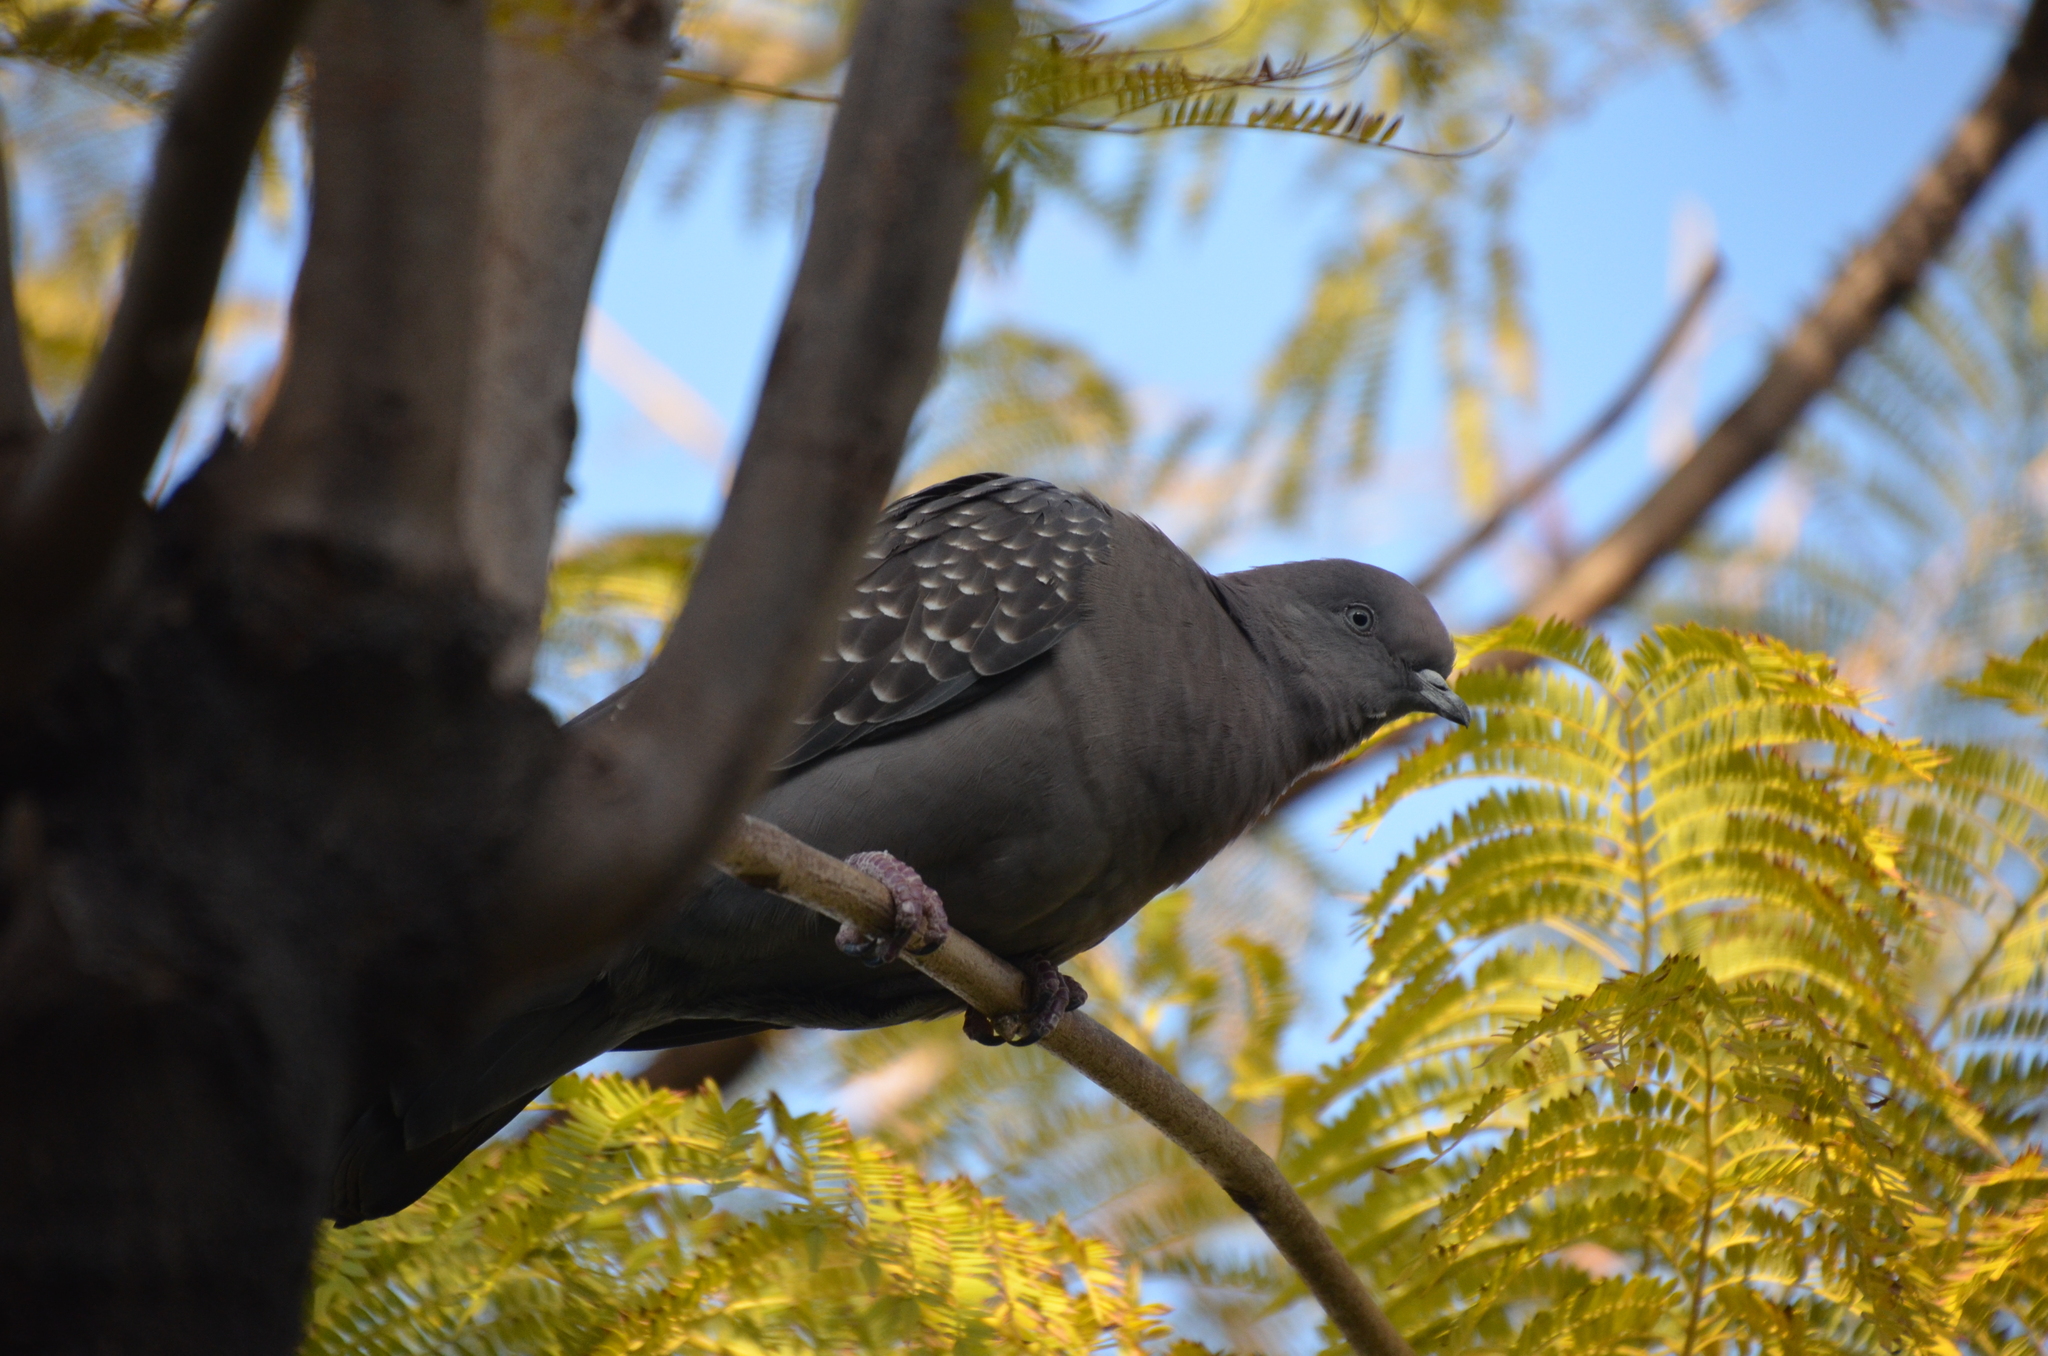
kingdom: Animalia
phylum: Chordata
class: Aves
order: Columbiformes
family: Columbidae
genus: Patagioenas
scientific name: Patagioenas maculosa
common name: Spot-winged pigeon
